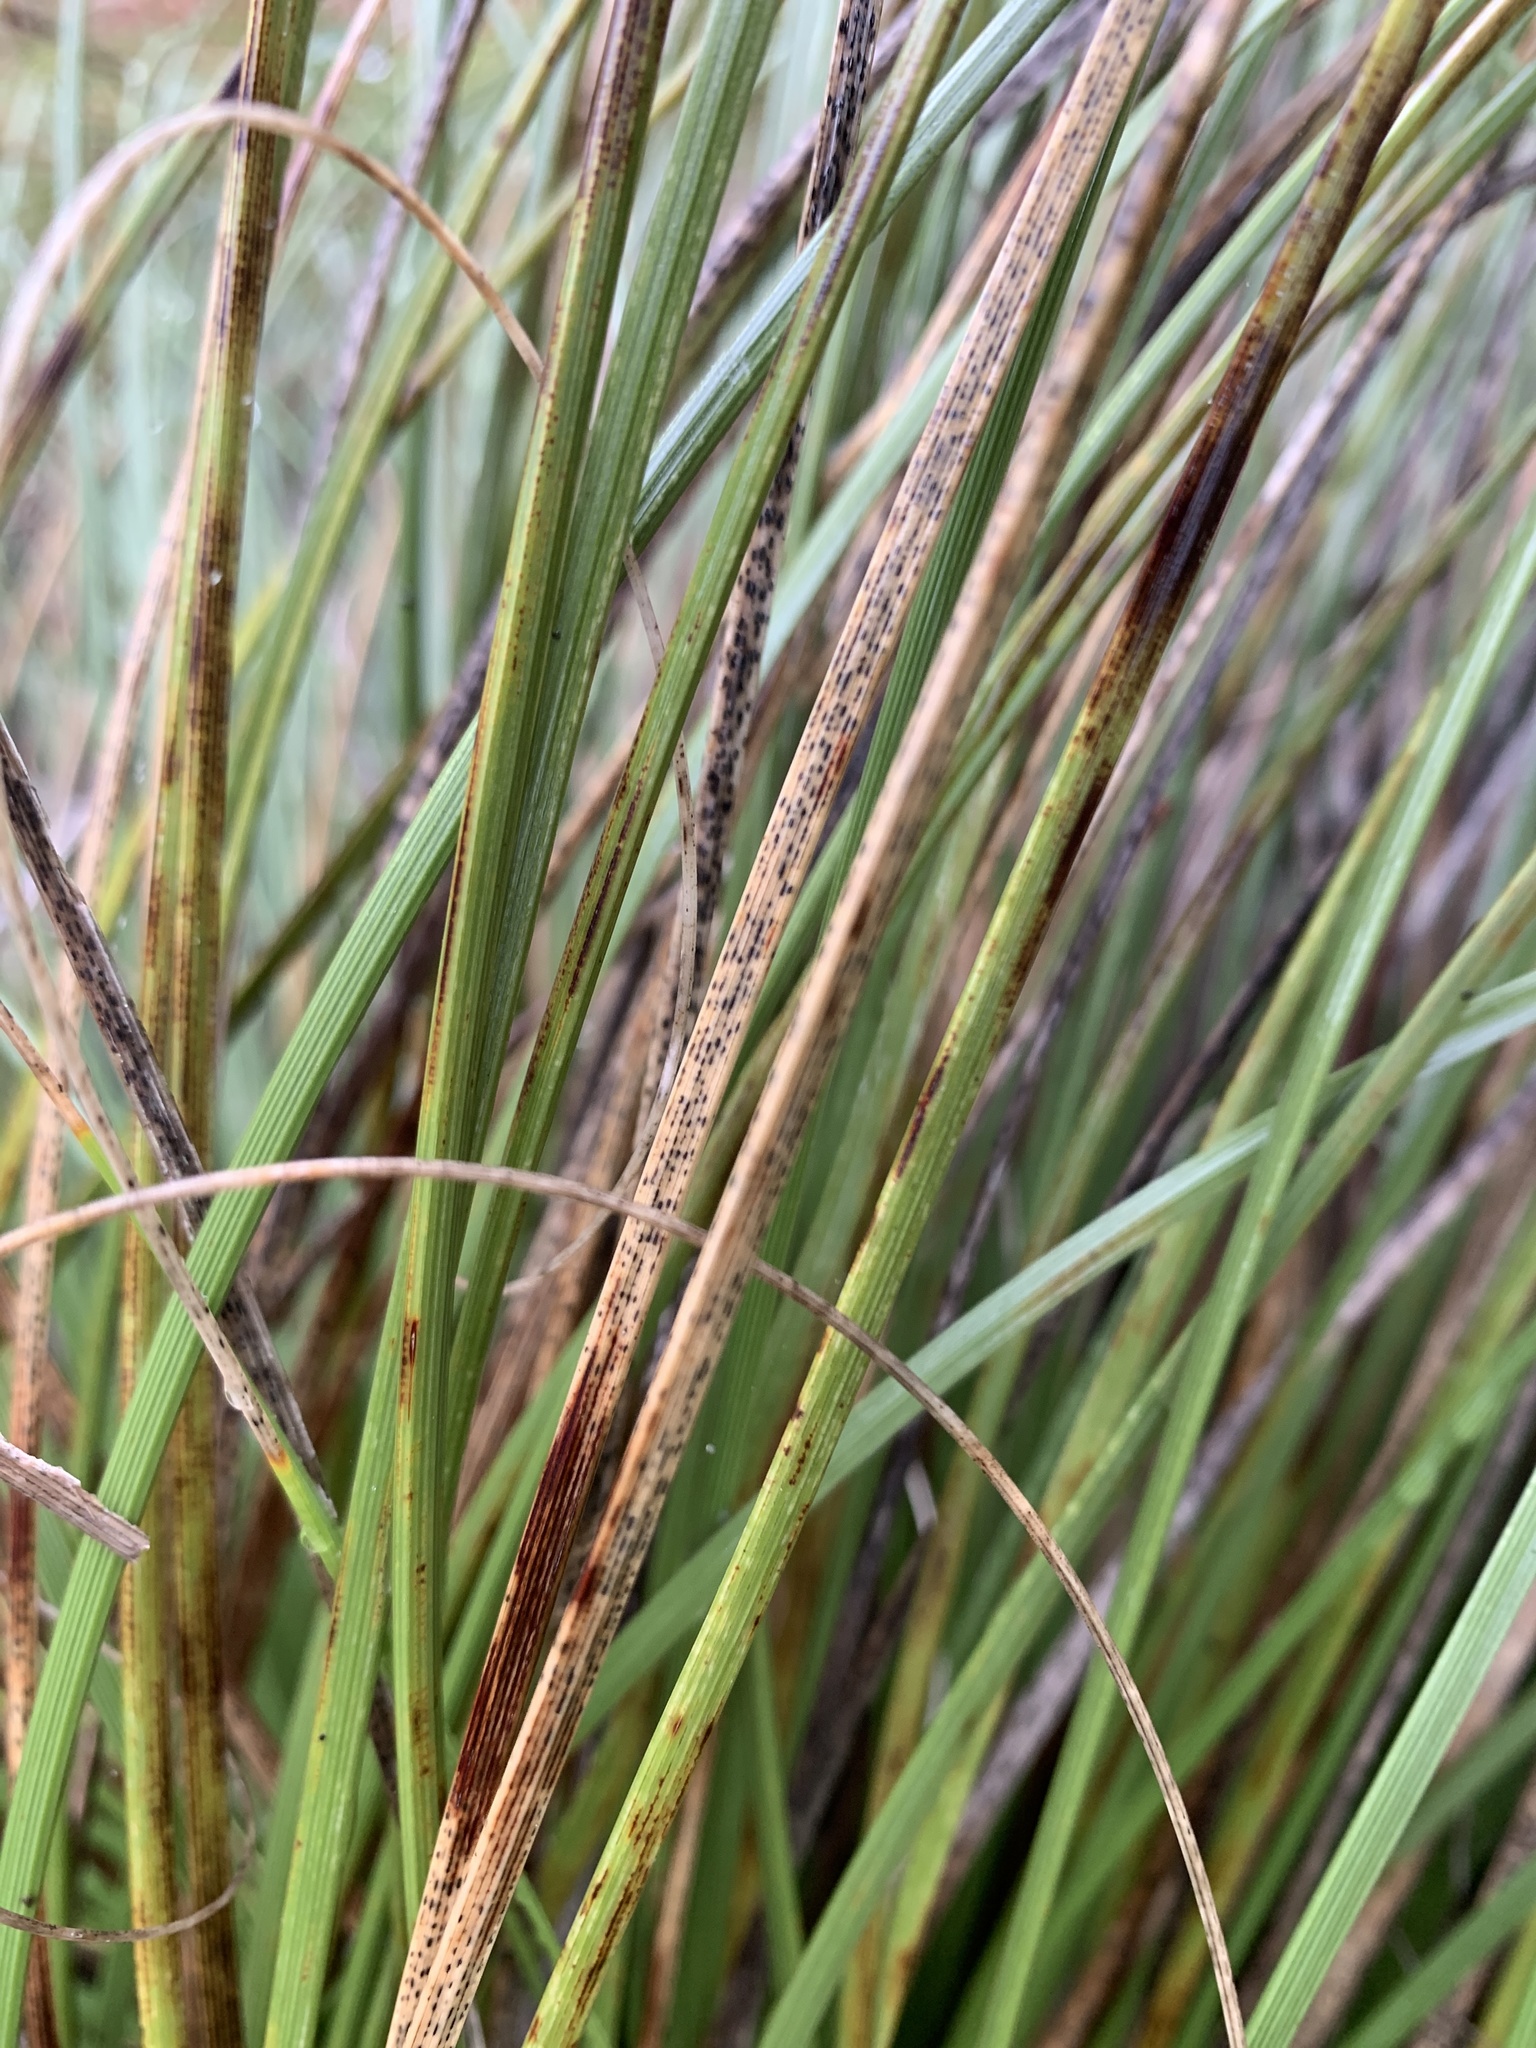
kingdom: Plantae
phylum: Tracheophyta
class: Liliopsida
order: Asparagales
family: Asparagaceae
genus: Nolina
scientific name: Nolina texana
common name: Texas sacahuiste
